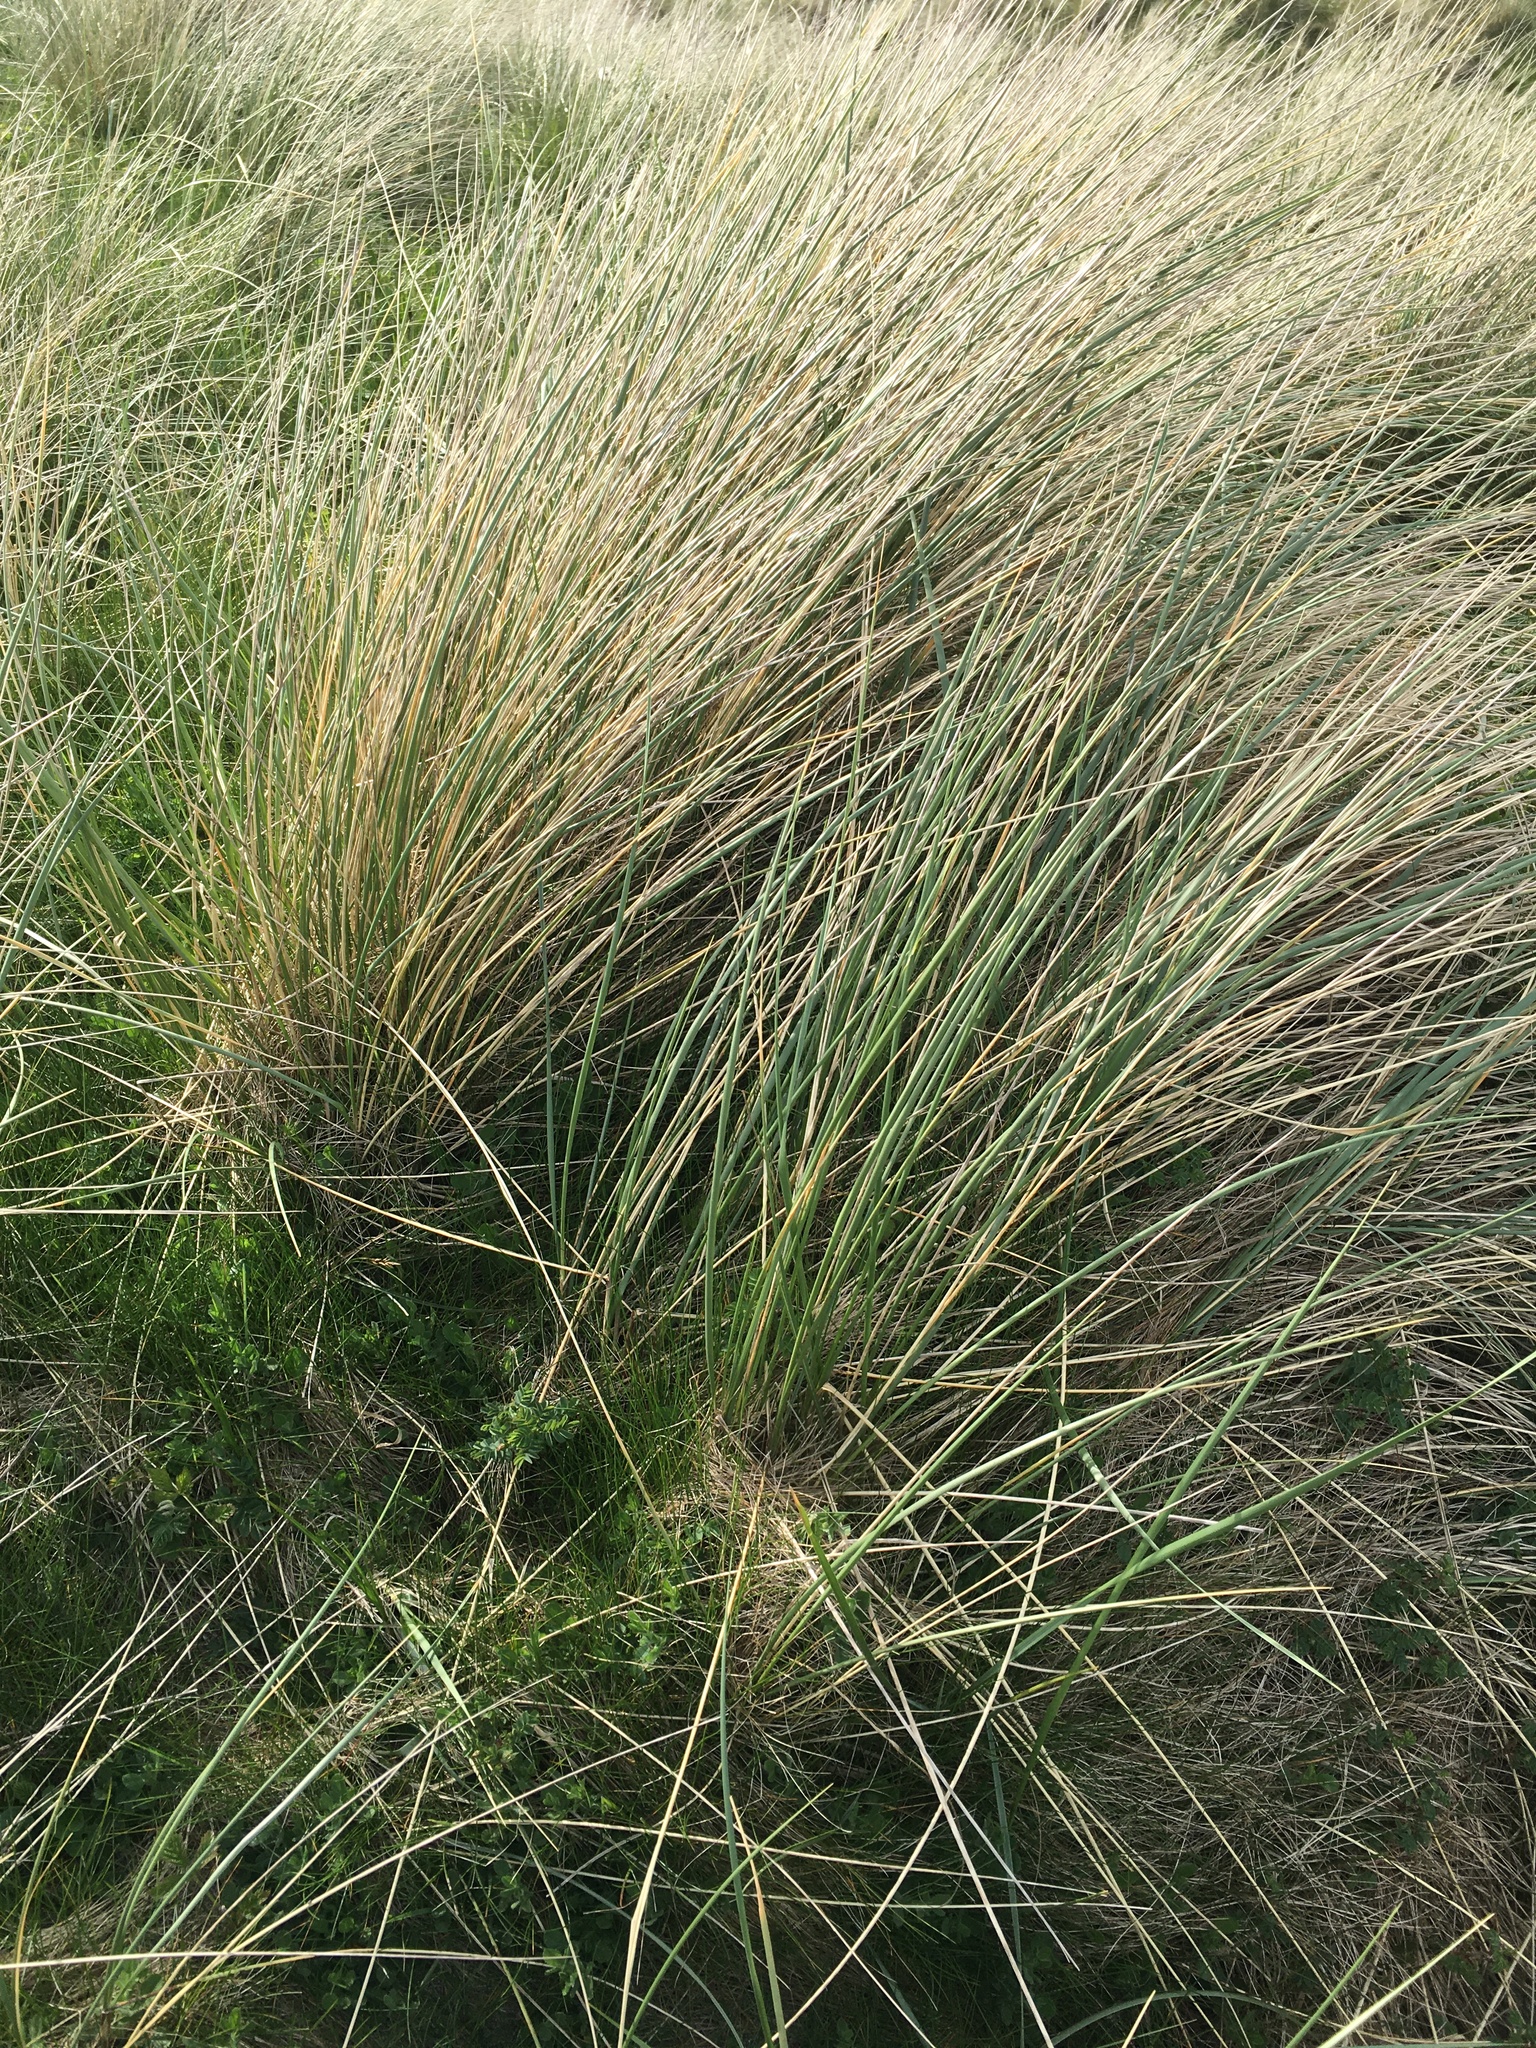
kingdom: Plantae
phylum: Tracheophyta
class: Liliopsida
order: Poales
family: Poaceae
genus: Calamagrostis
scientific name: Calamagrostis arenaria
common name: European beachgrass
